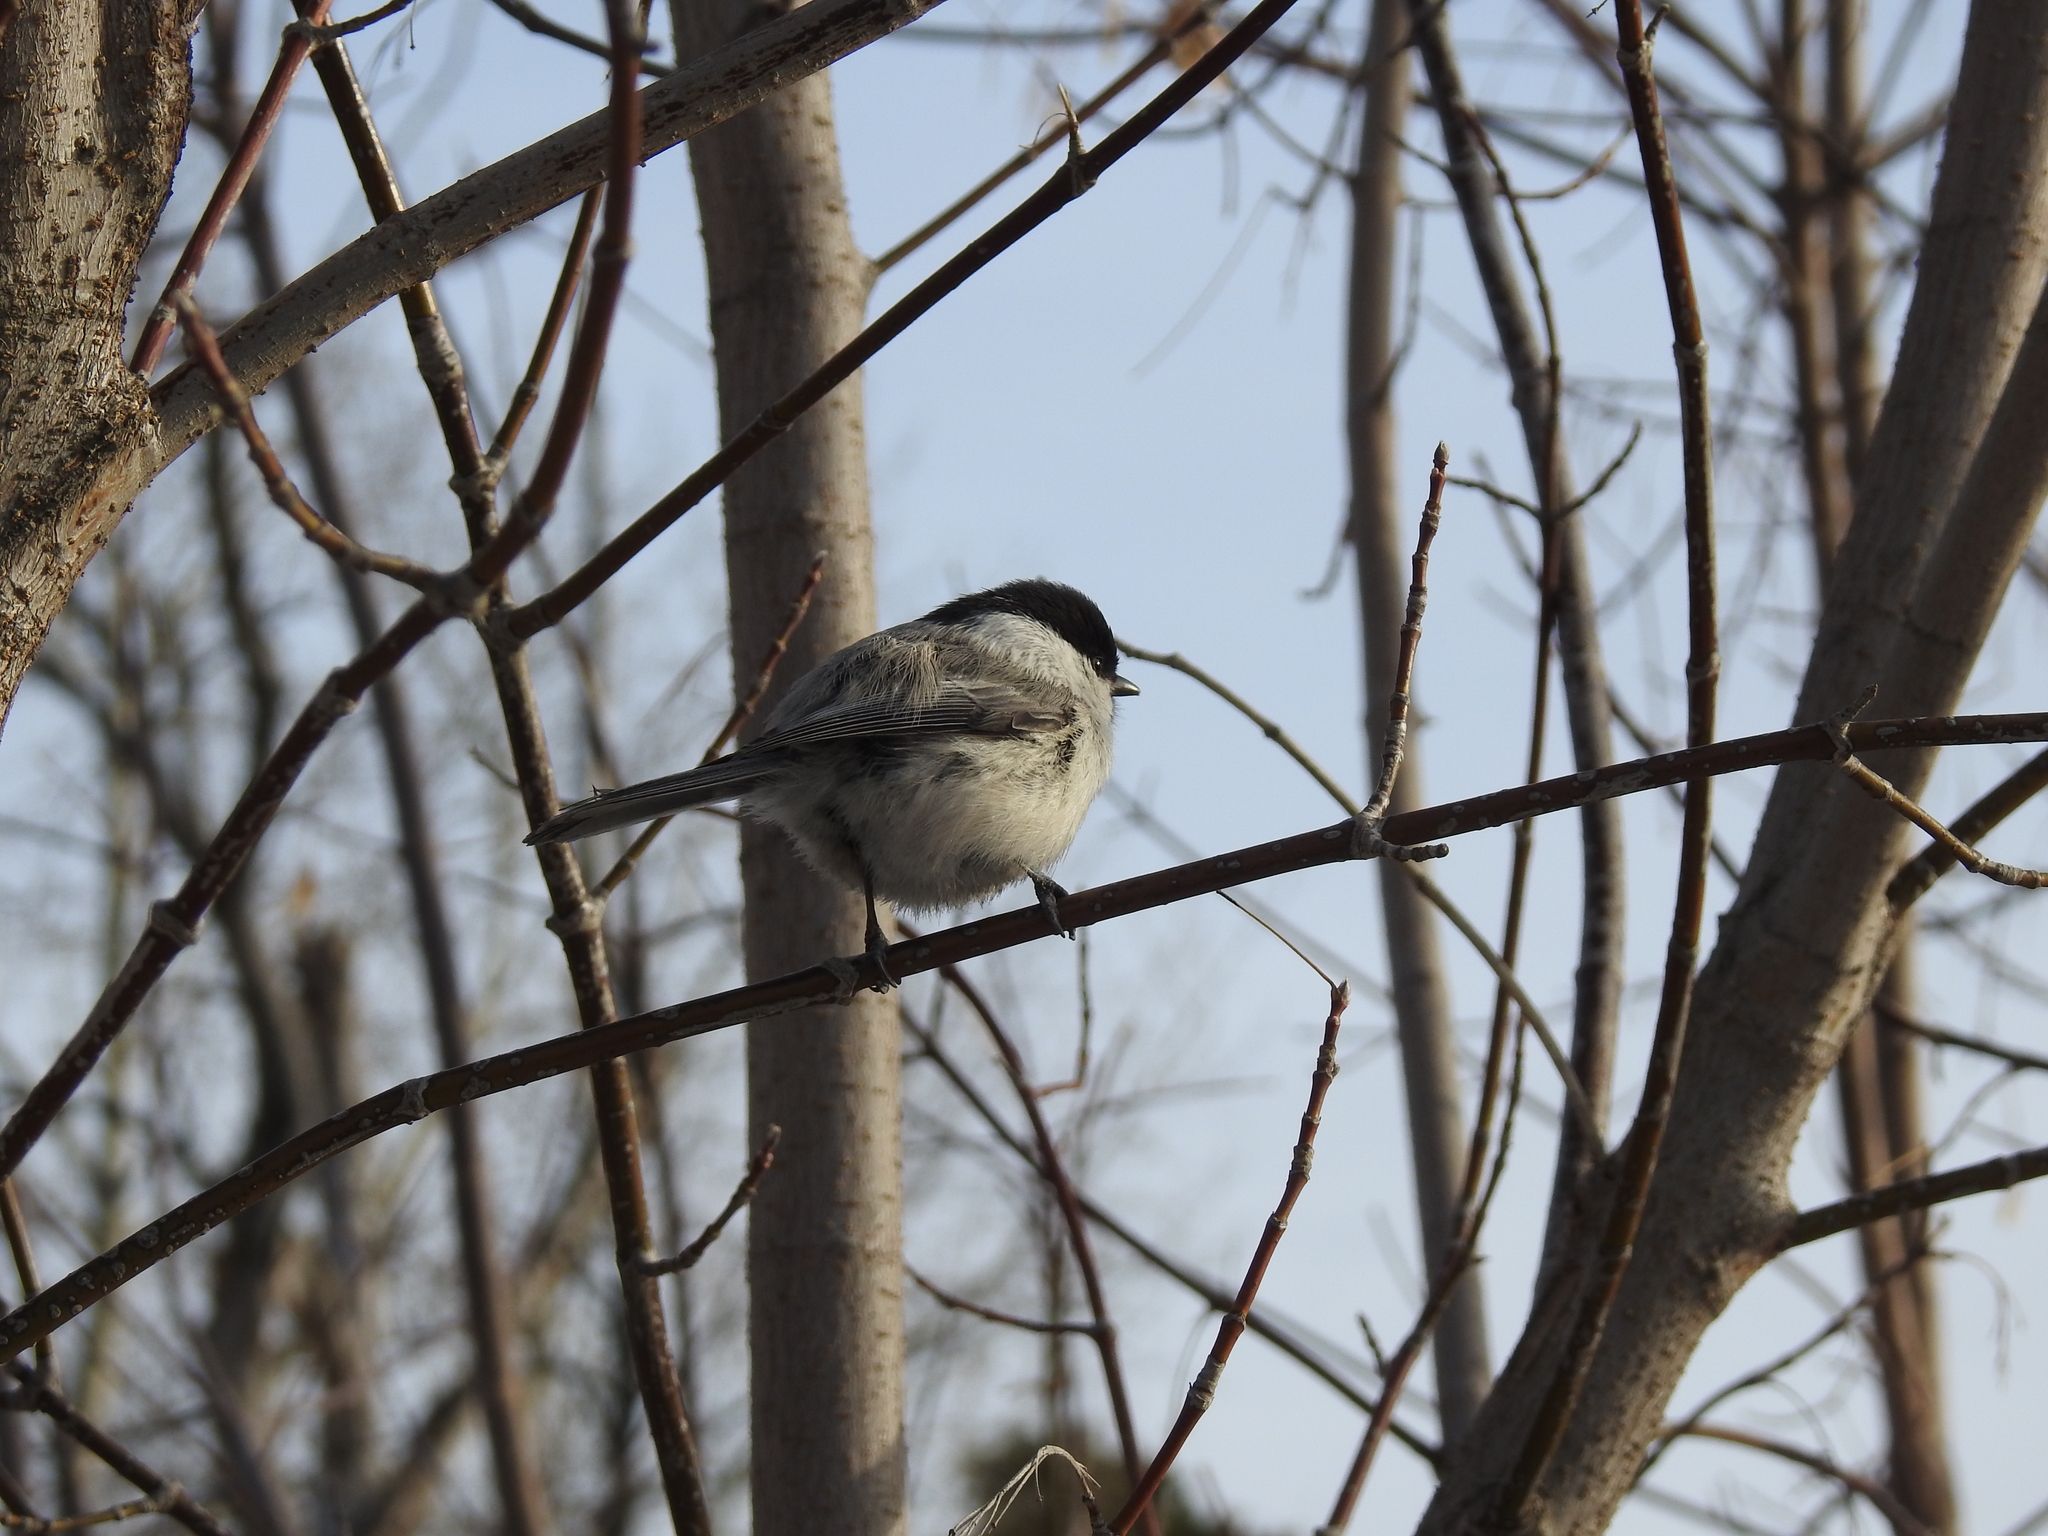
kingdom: Animalia
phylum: Chordata
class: Aves
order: Passeriformes
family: Paridae
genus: Poecile
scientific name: Poecile montanus
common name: Willow tit
